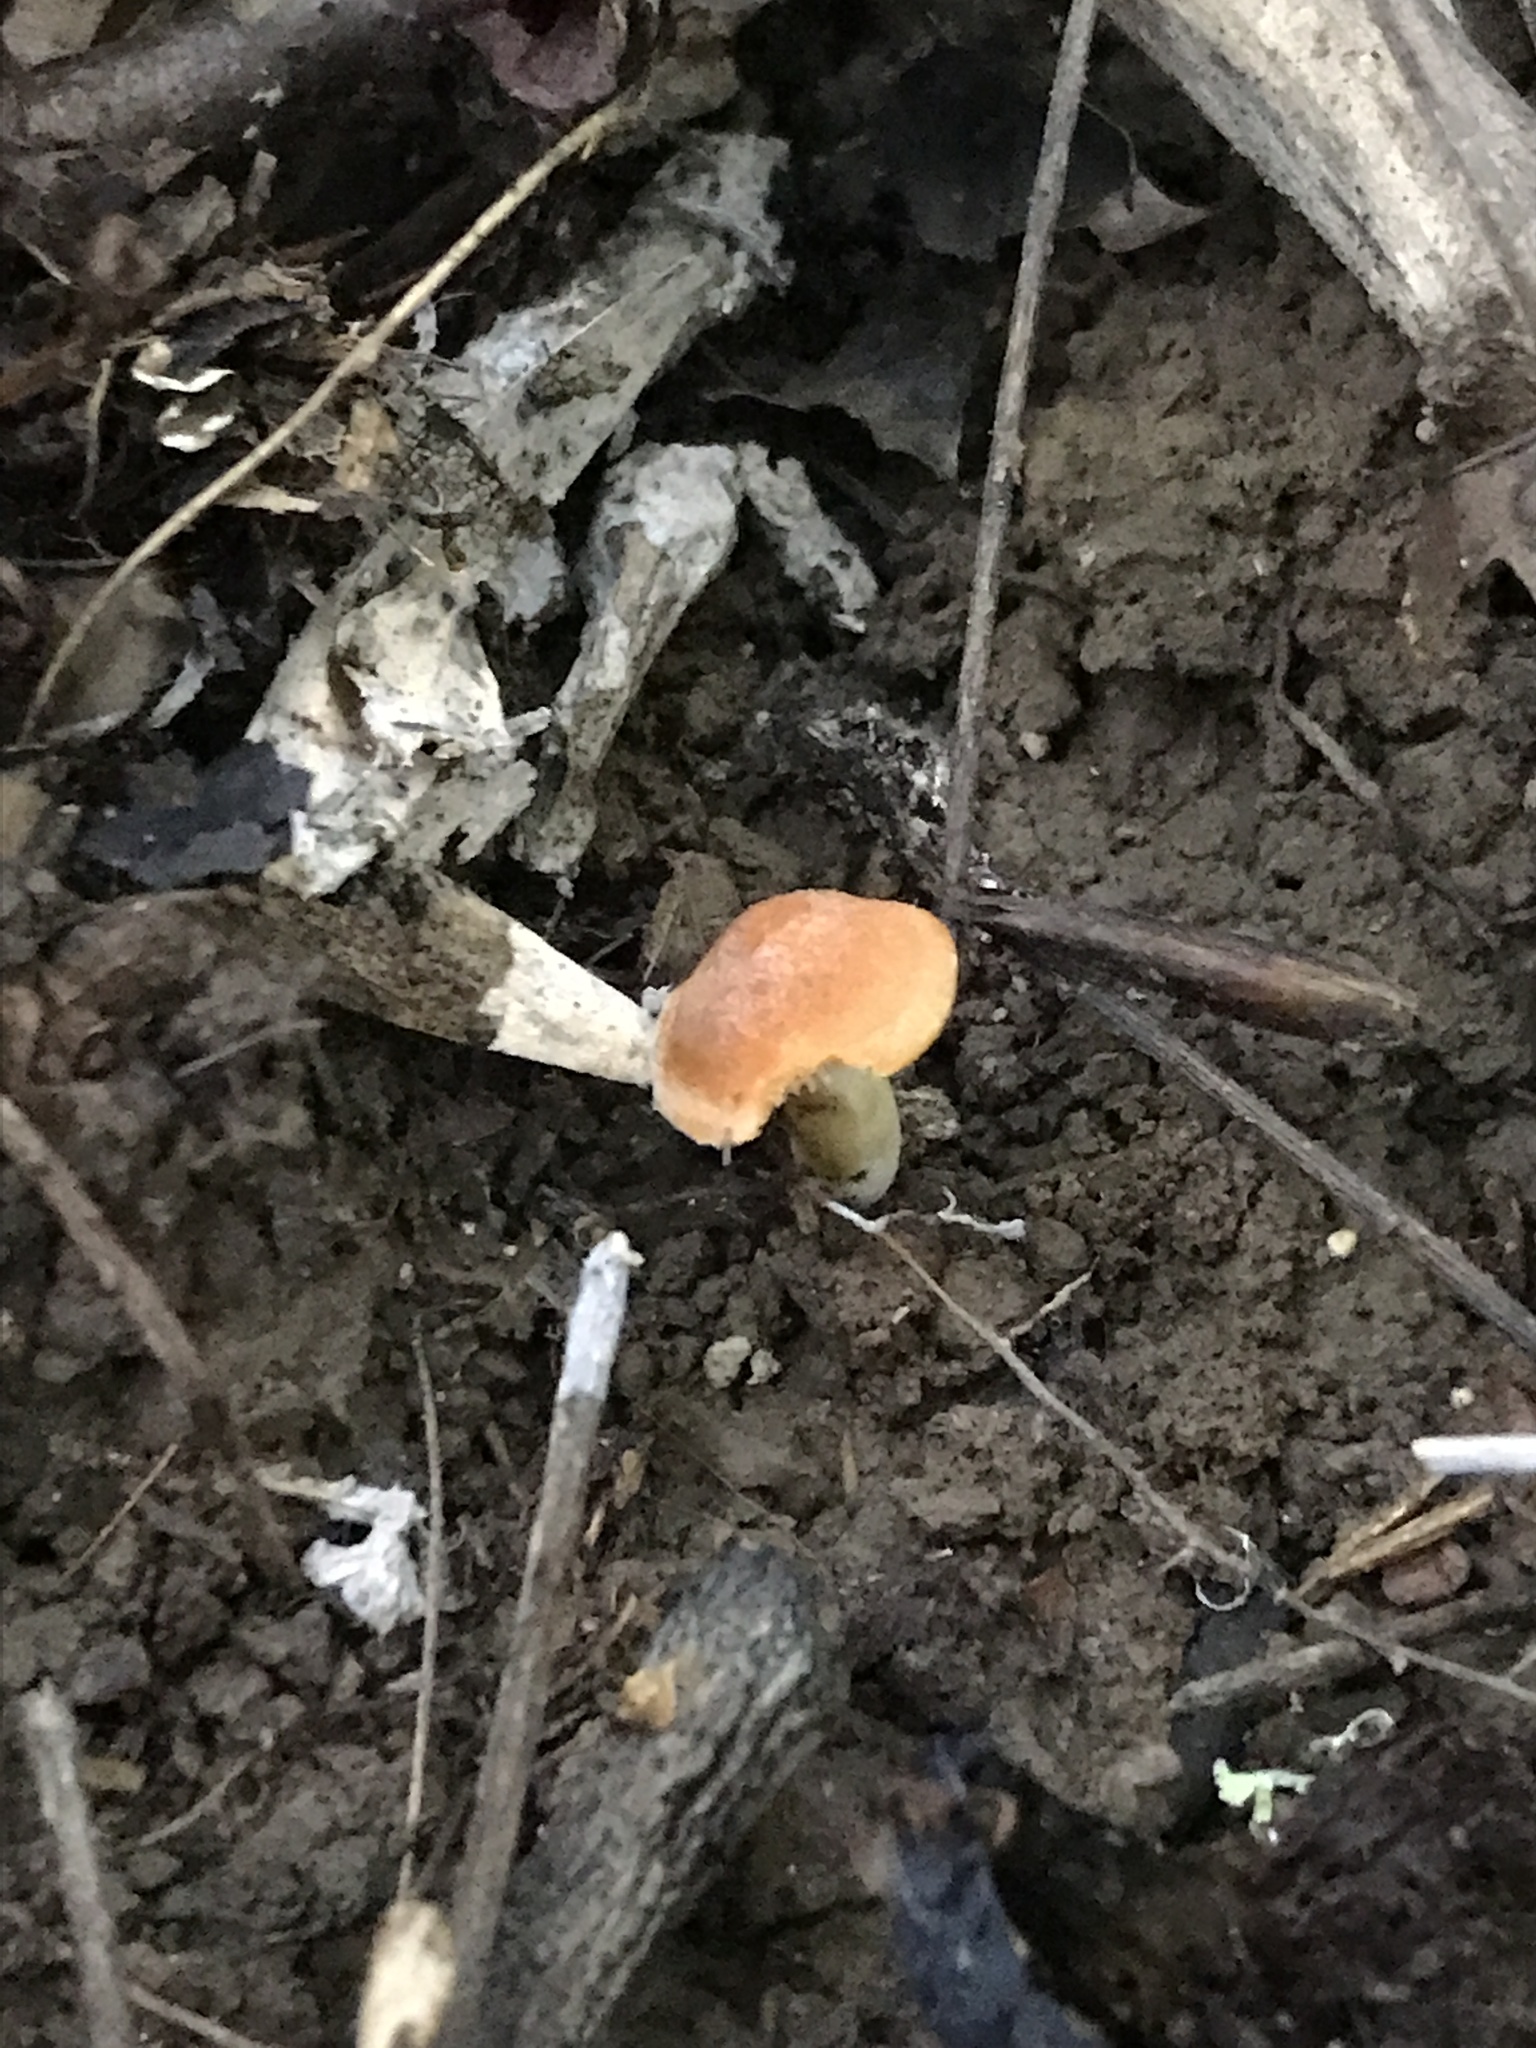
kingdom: Fungi
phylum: Basidiomycota
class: Agaricomycetes
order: Agaricales
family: Hygrophoraceae
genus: Cuphophyllus
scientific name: Cuphophyllus pratensis
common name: Meadow waxcap
